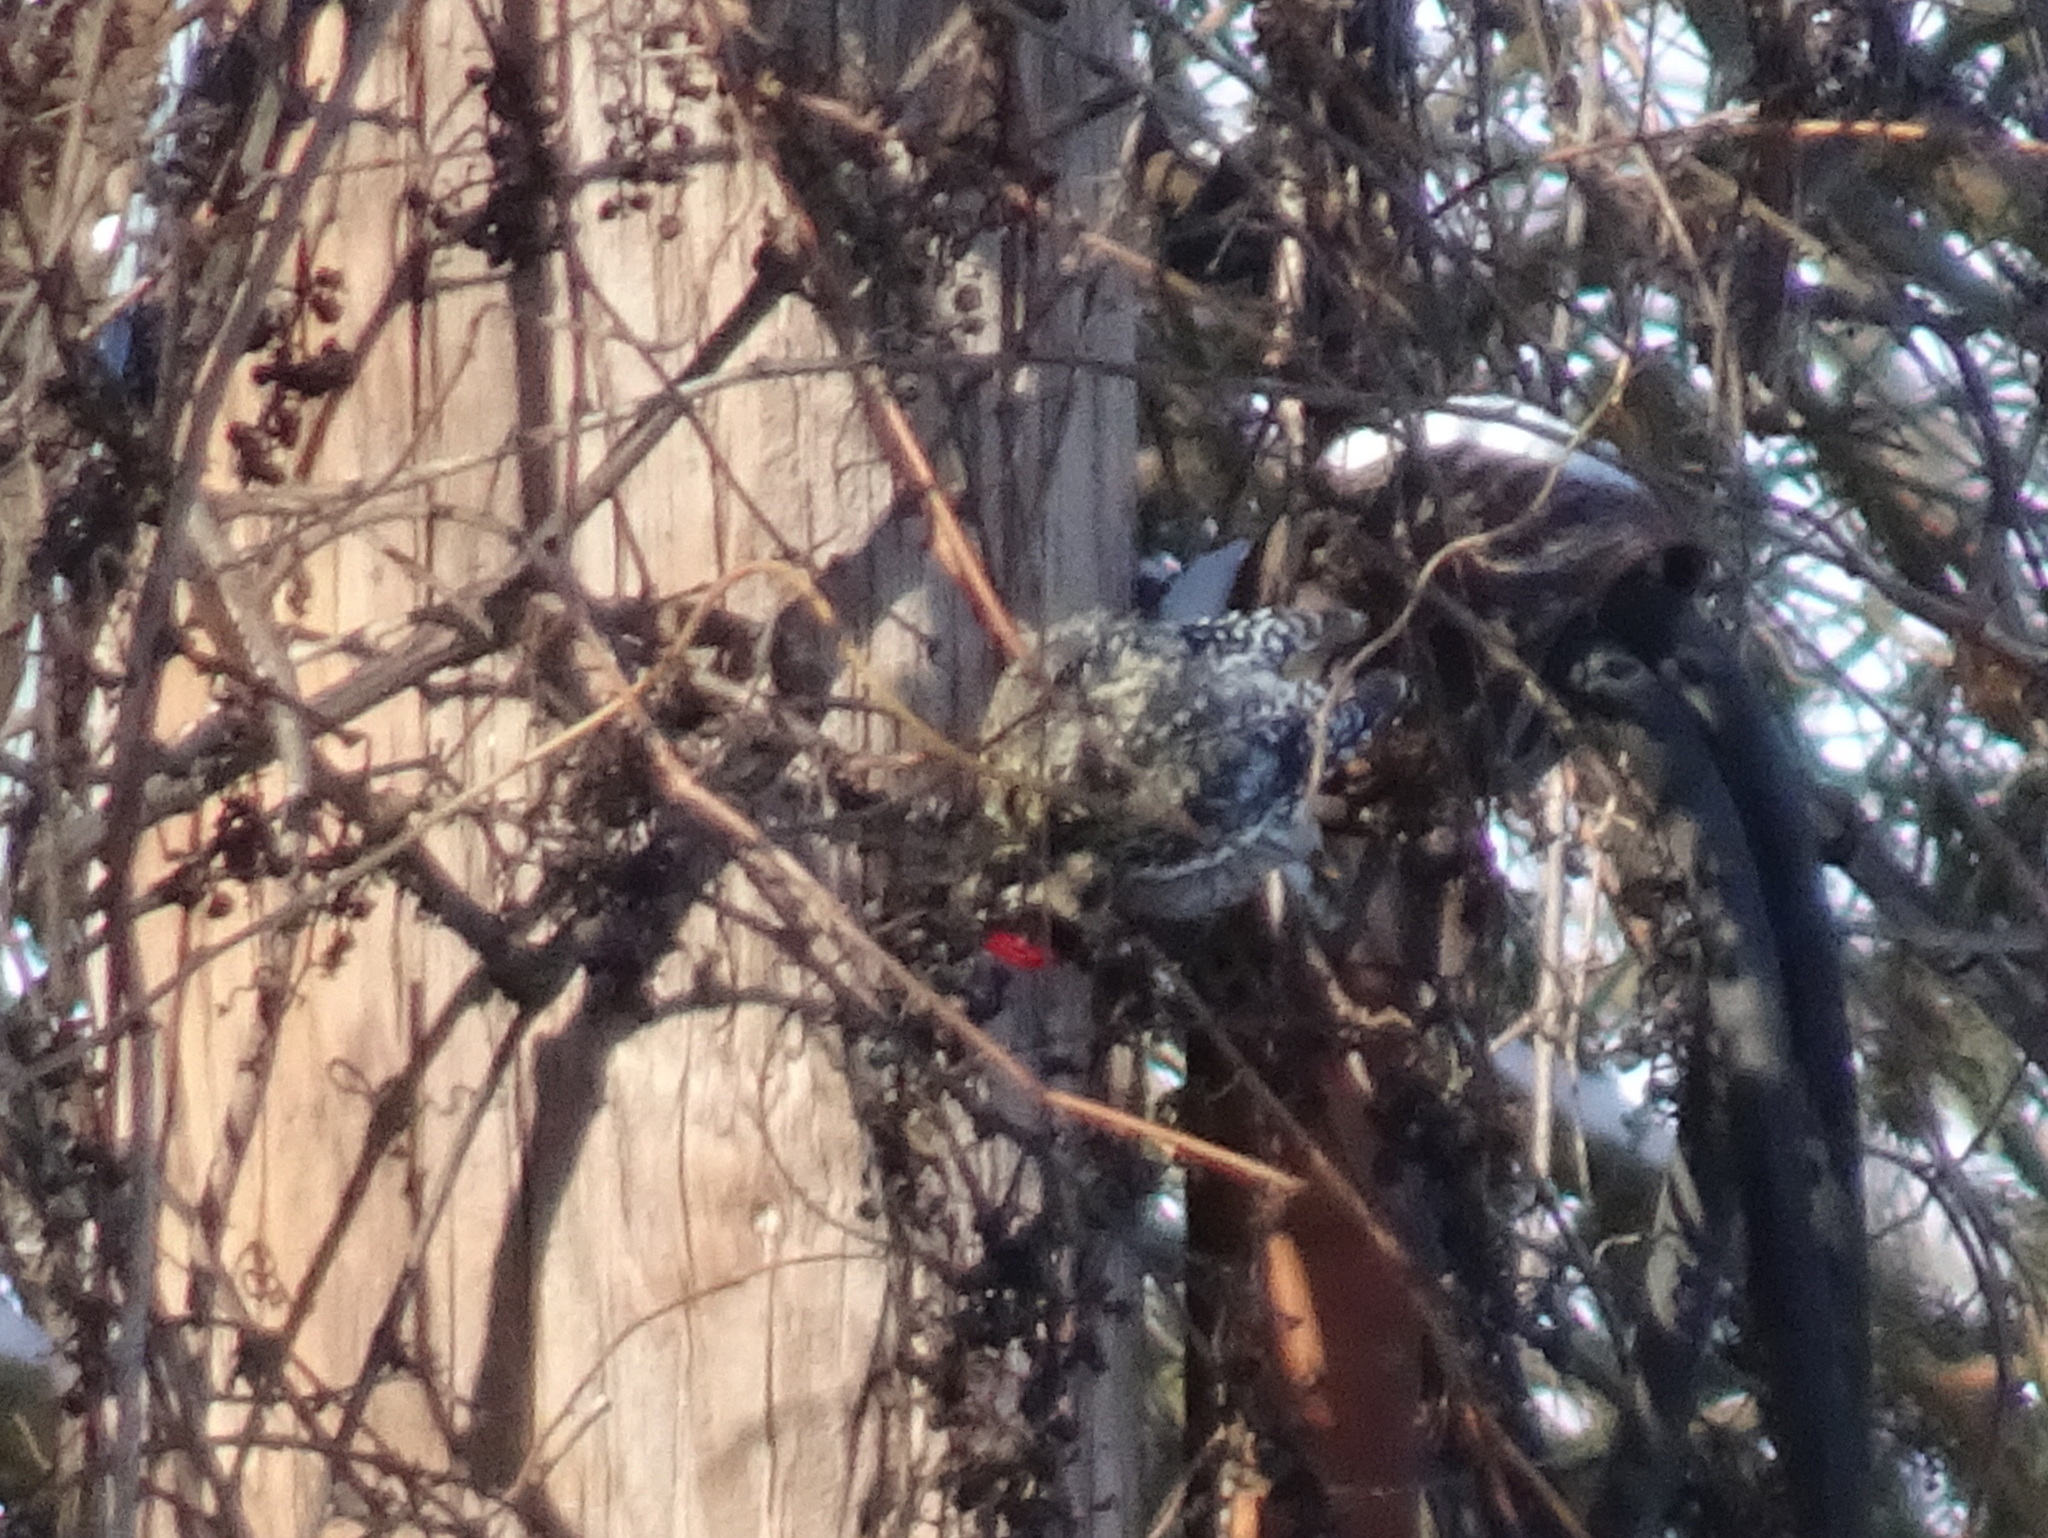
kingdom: Animalia
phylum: Chordata
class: Aves
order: Piciformes
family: Picidae
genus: Sphyrapicus
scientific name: Sphyrapicus varius
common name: Yellow-bellied sapsucker
